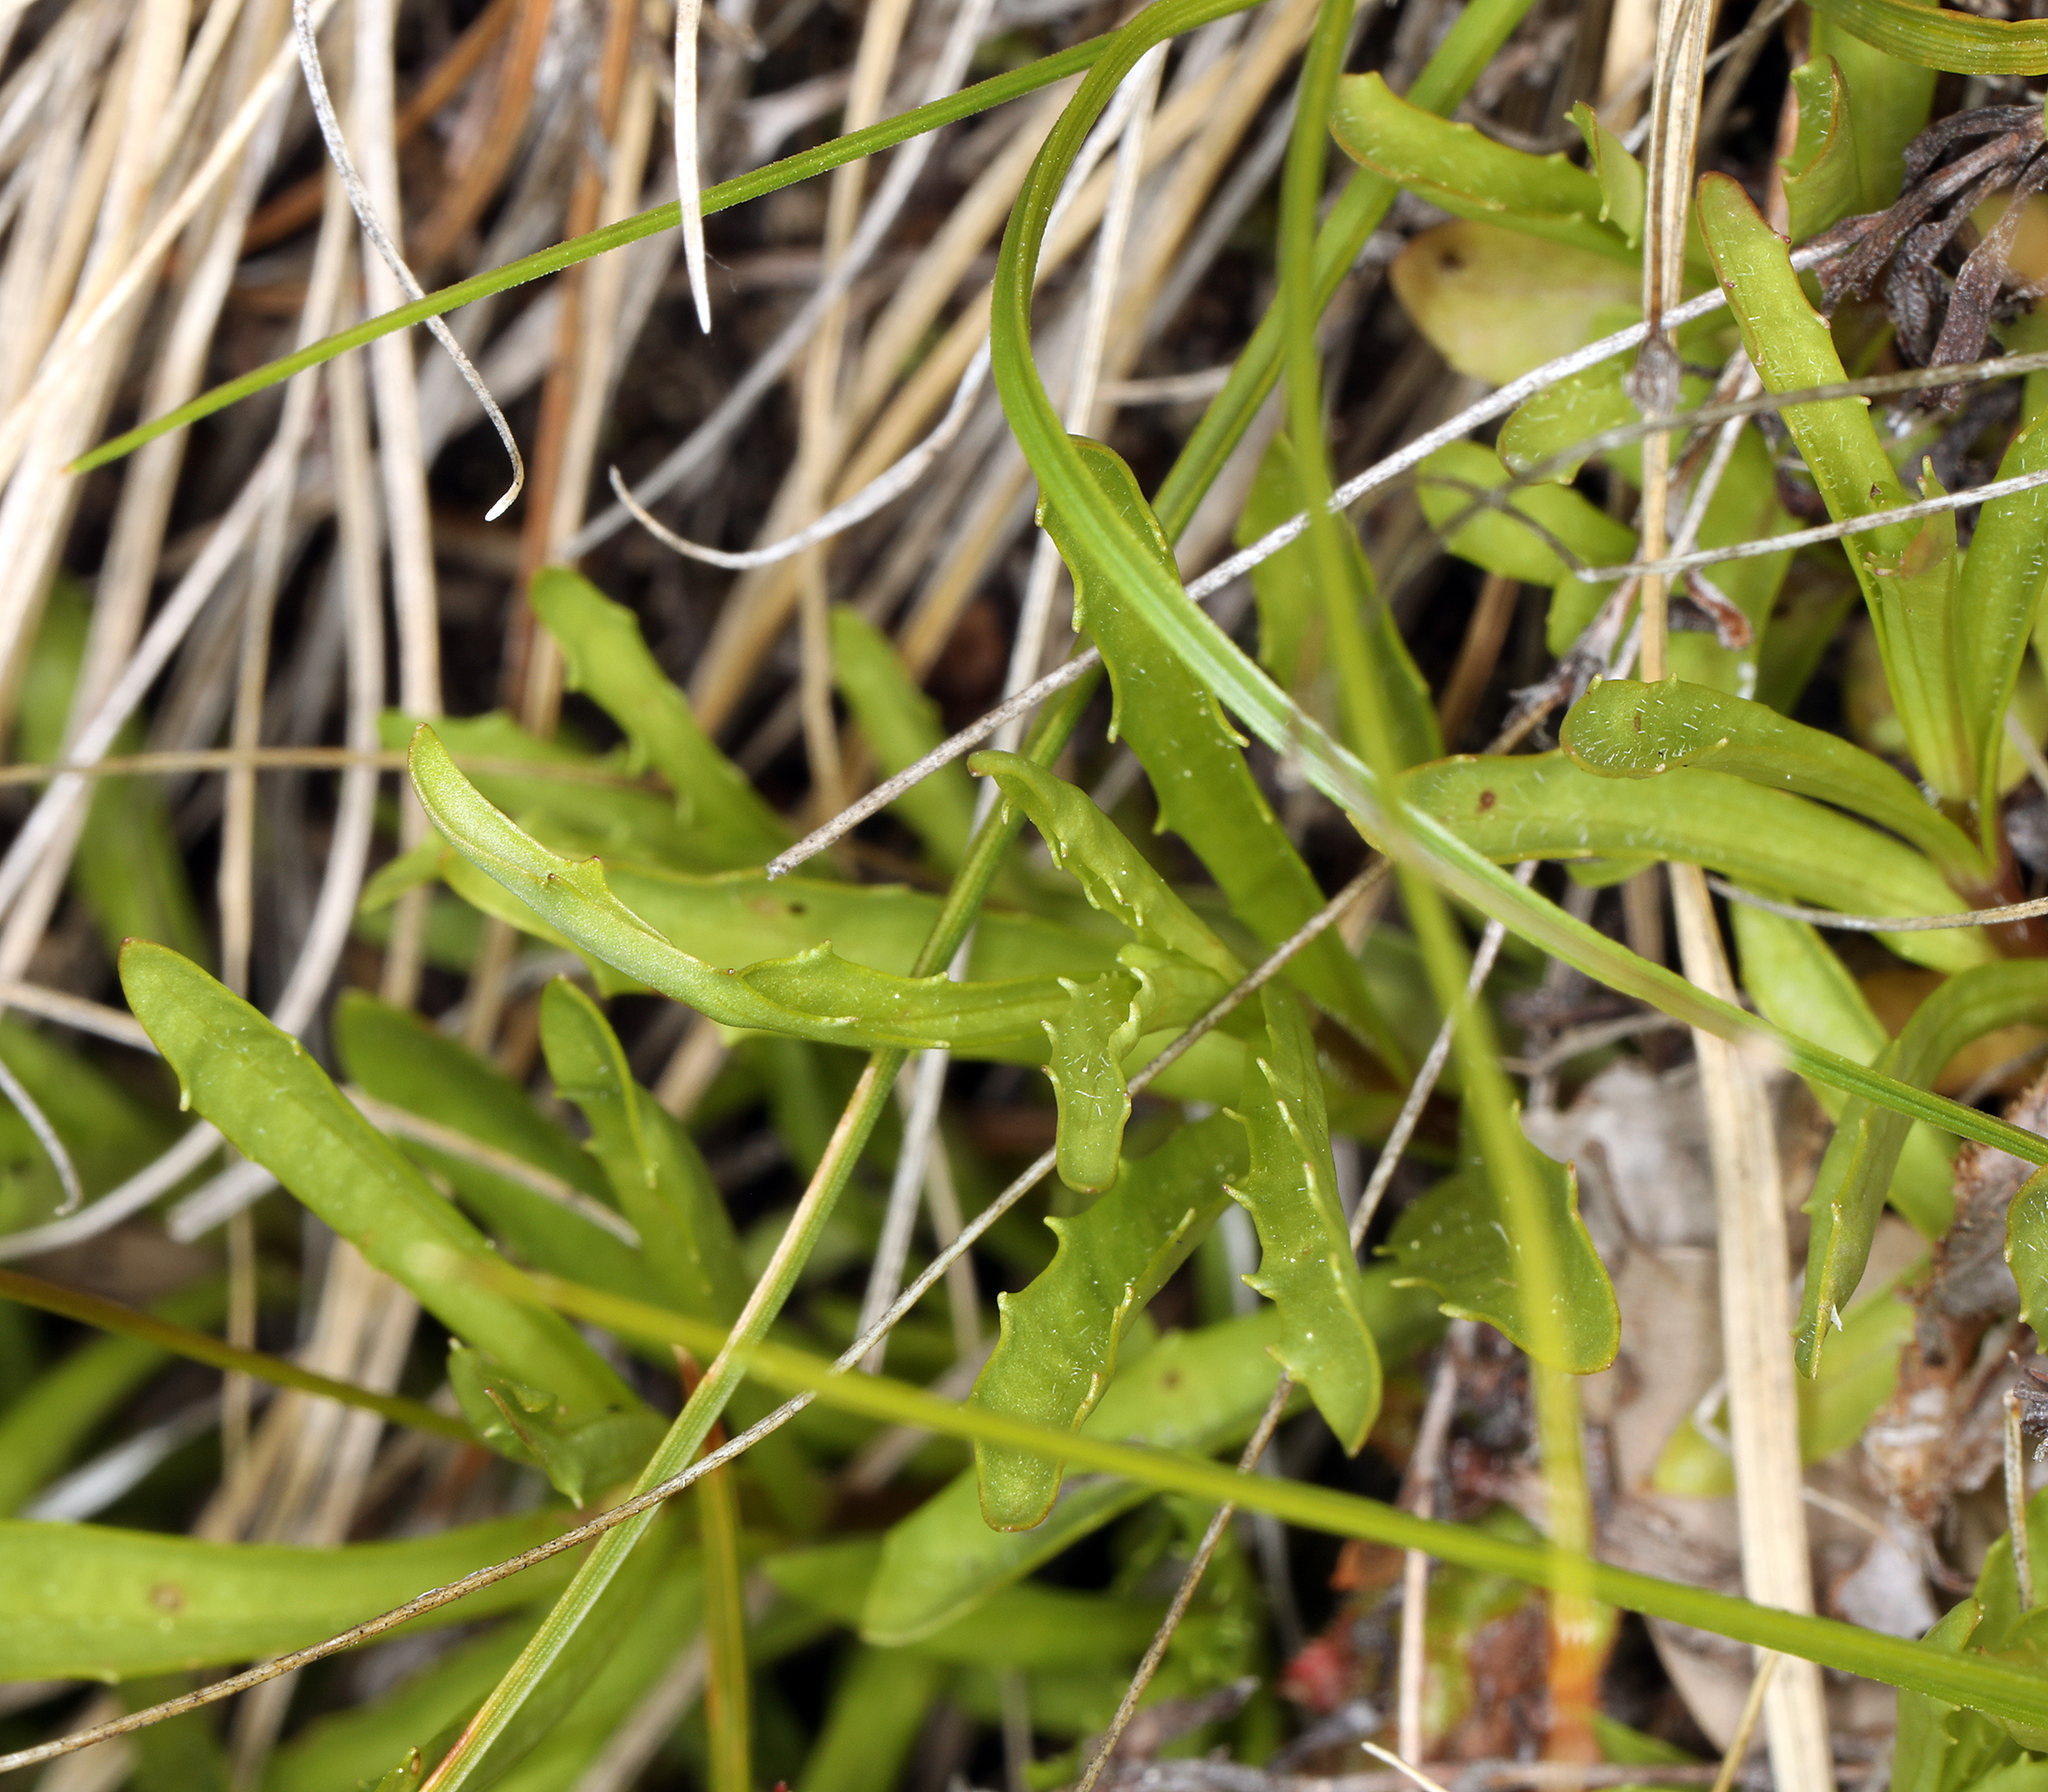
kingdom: Plantae
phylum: Tracheophyta
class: Magnoliopsida
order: Lamiales
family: Phrymaceae
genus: Erythranthe
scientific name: Erythranthe linearifolia
